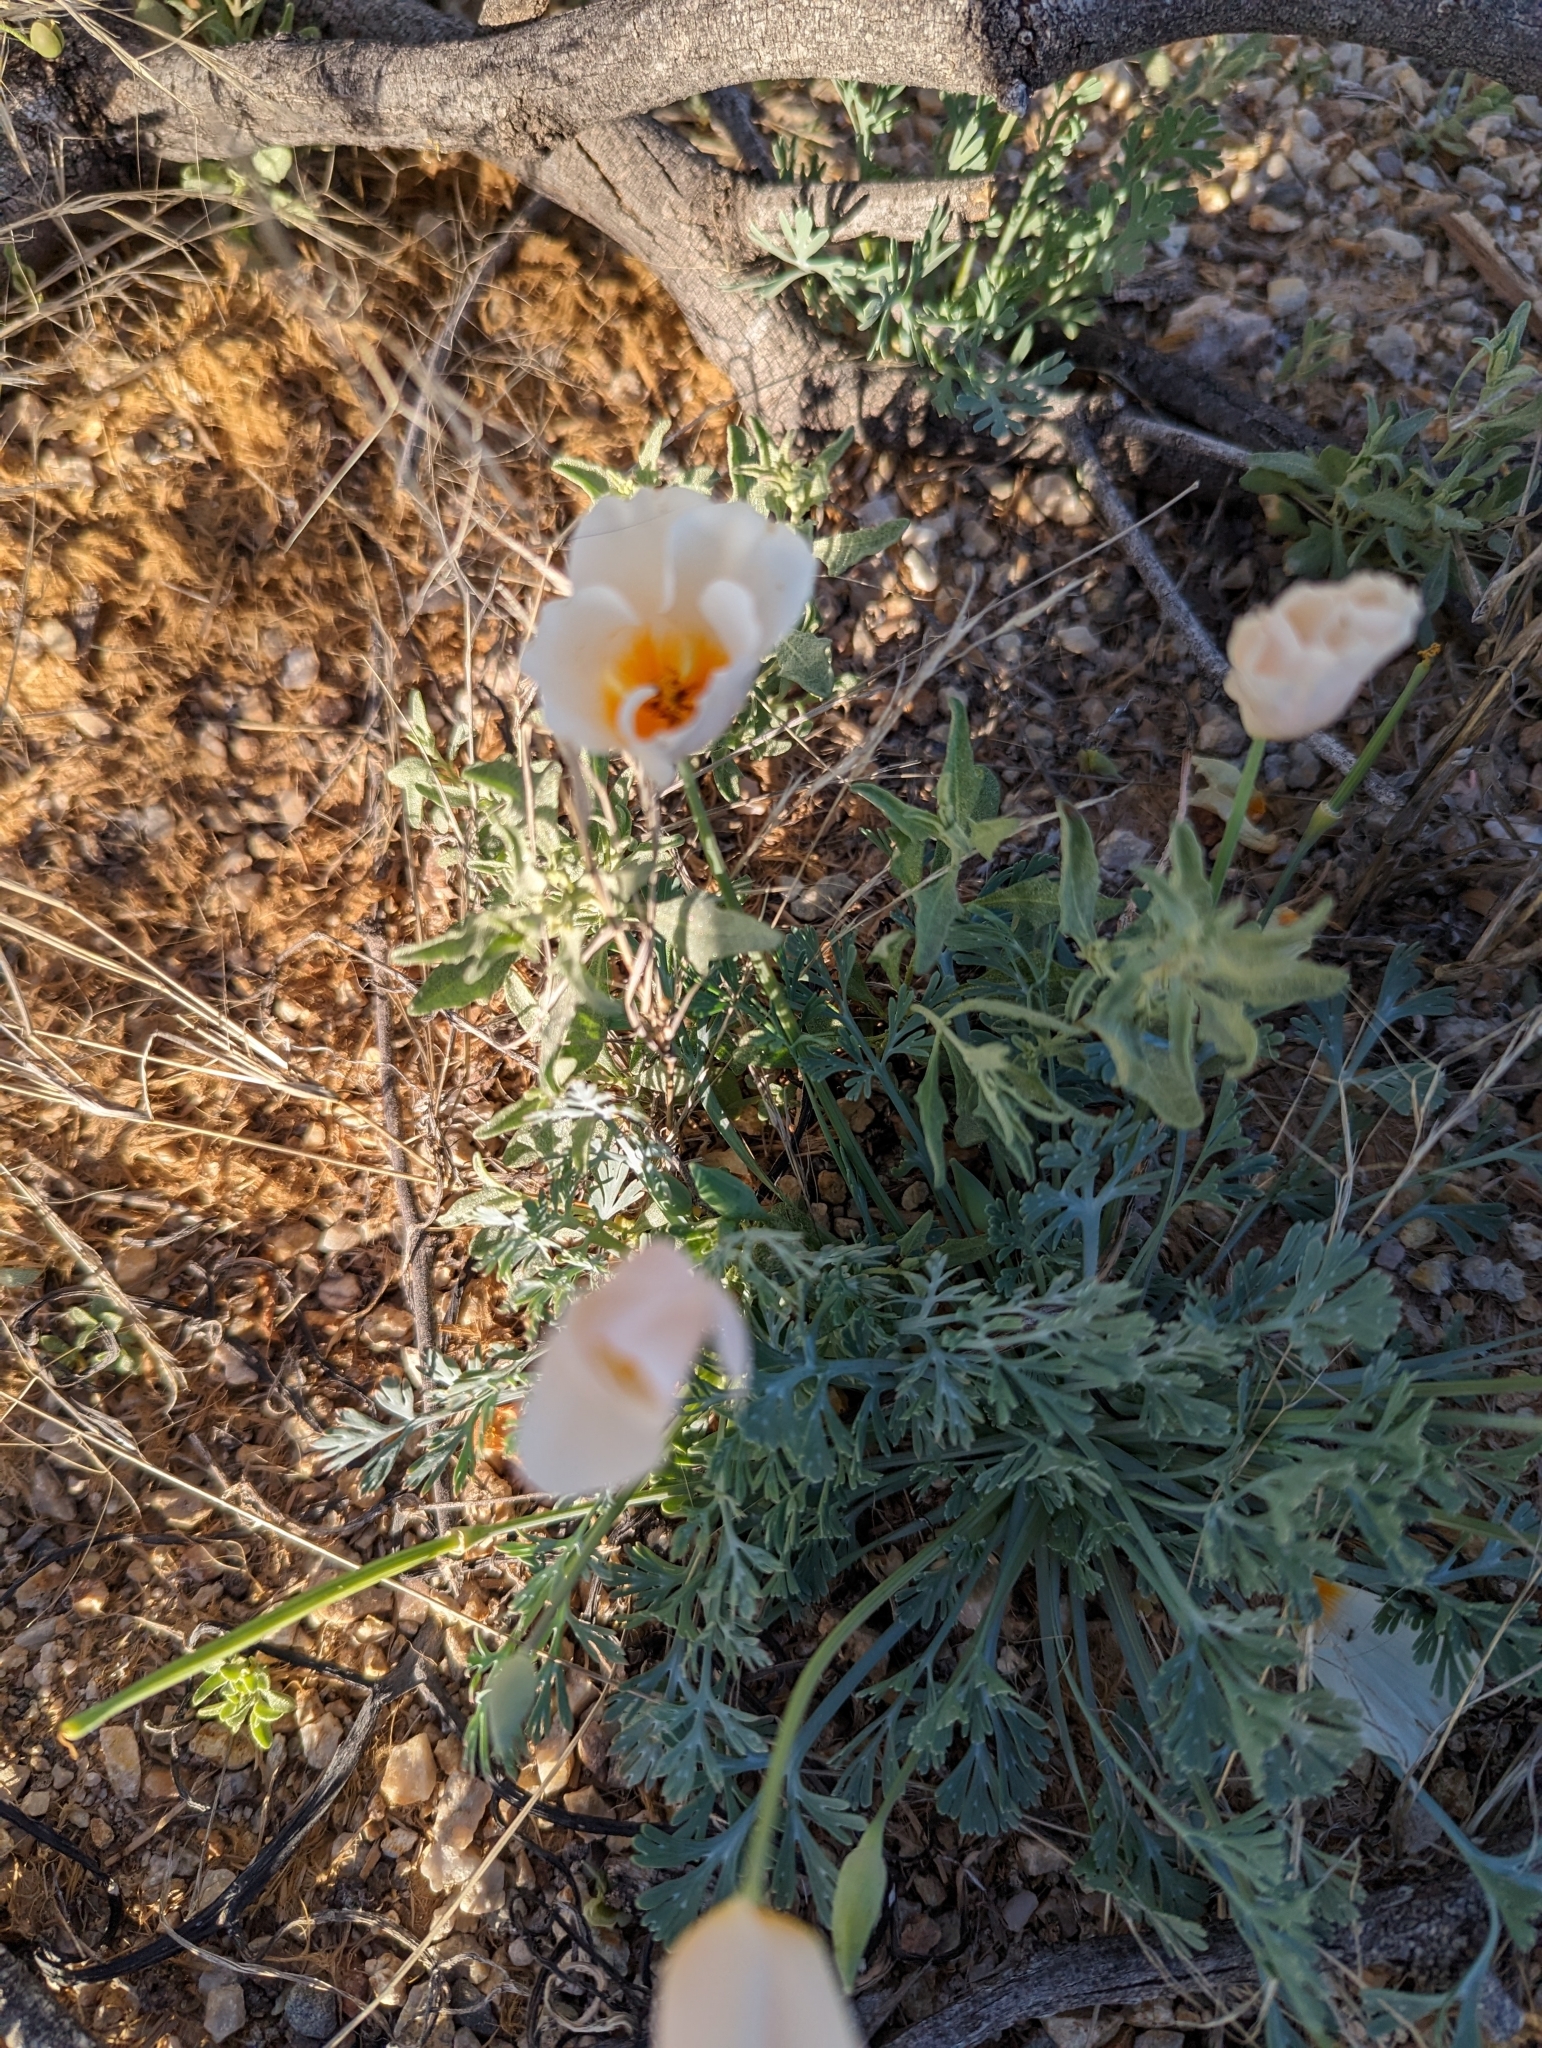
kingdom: Plantae
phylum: Tracheophyta
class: Magnoliopsida
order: Ranunculales
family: Papaveraceae
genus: Eschscholzia
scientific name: Eschscholzia californica
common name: California poppy
